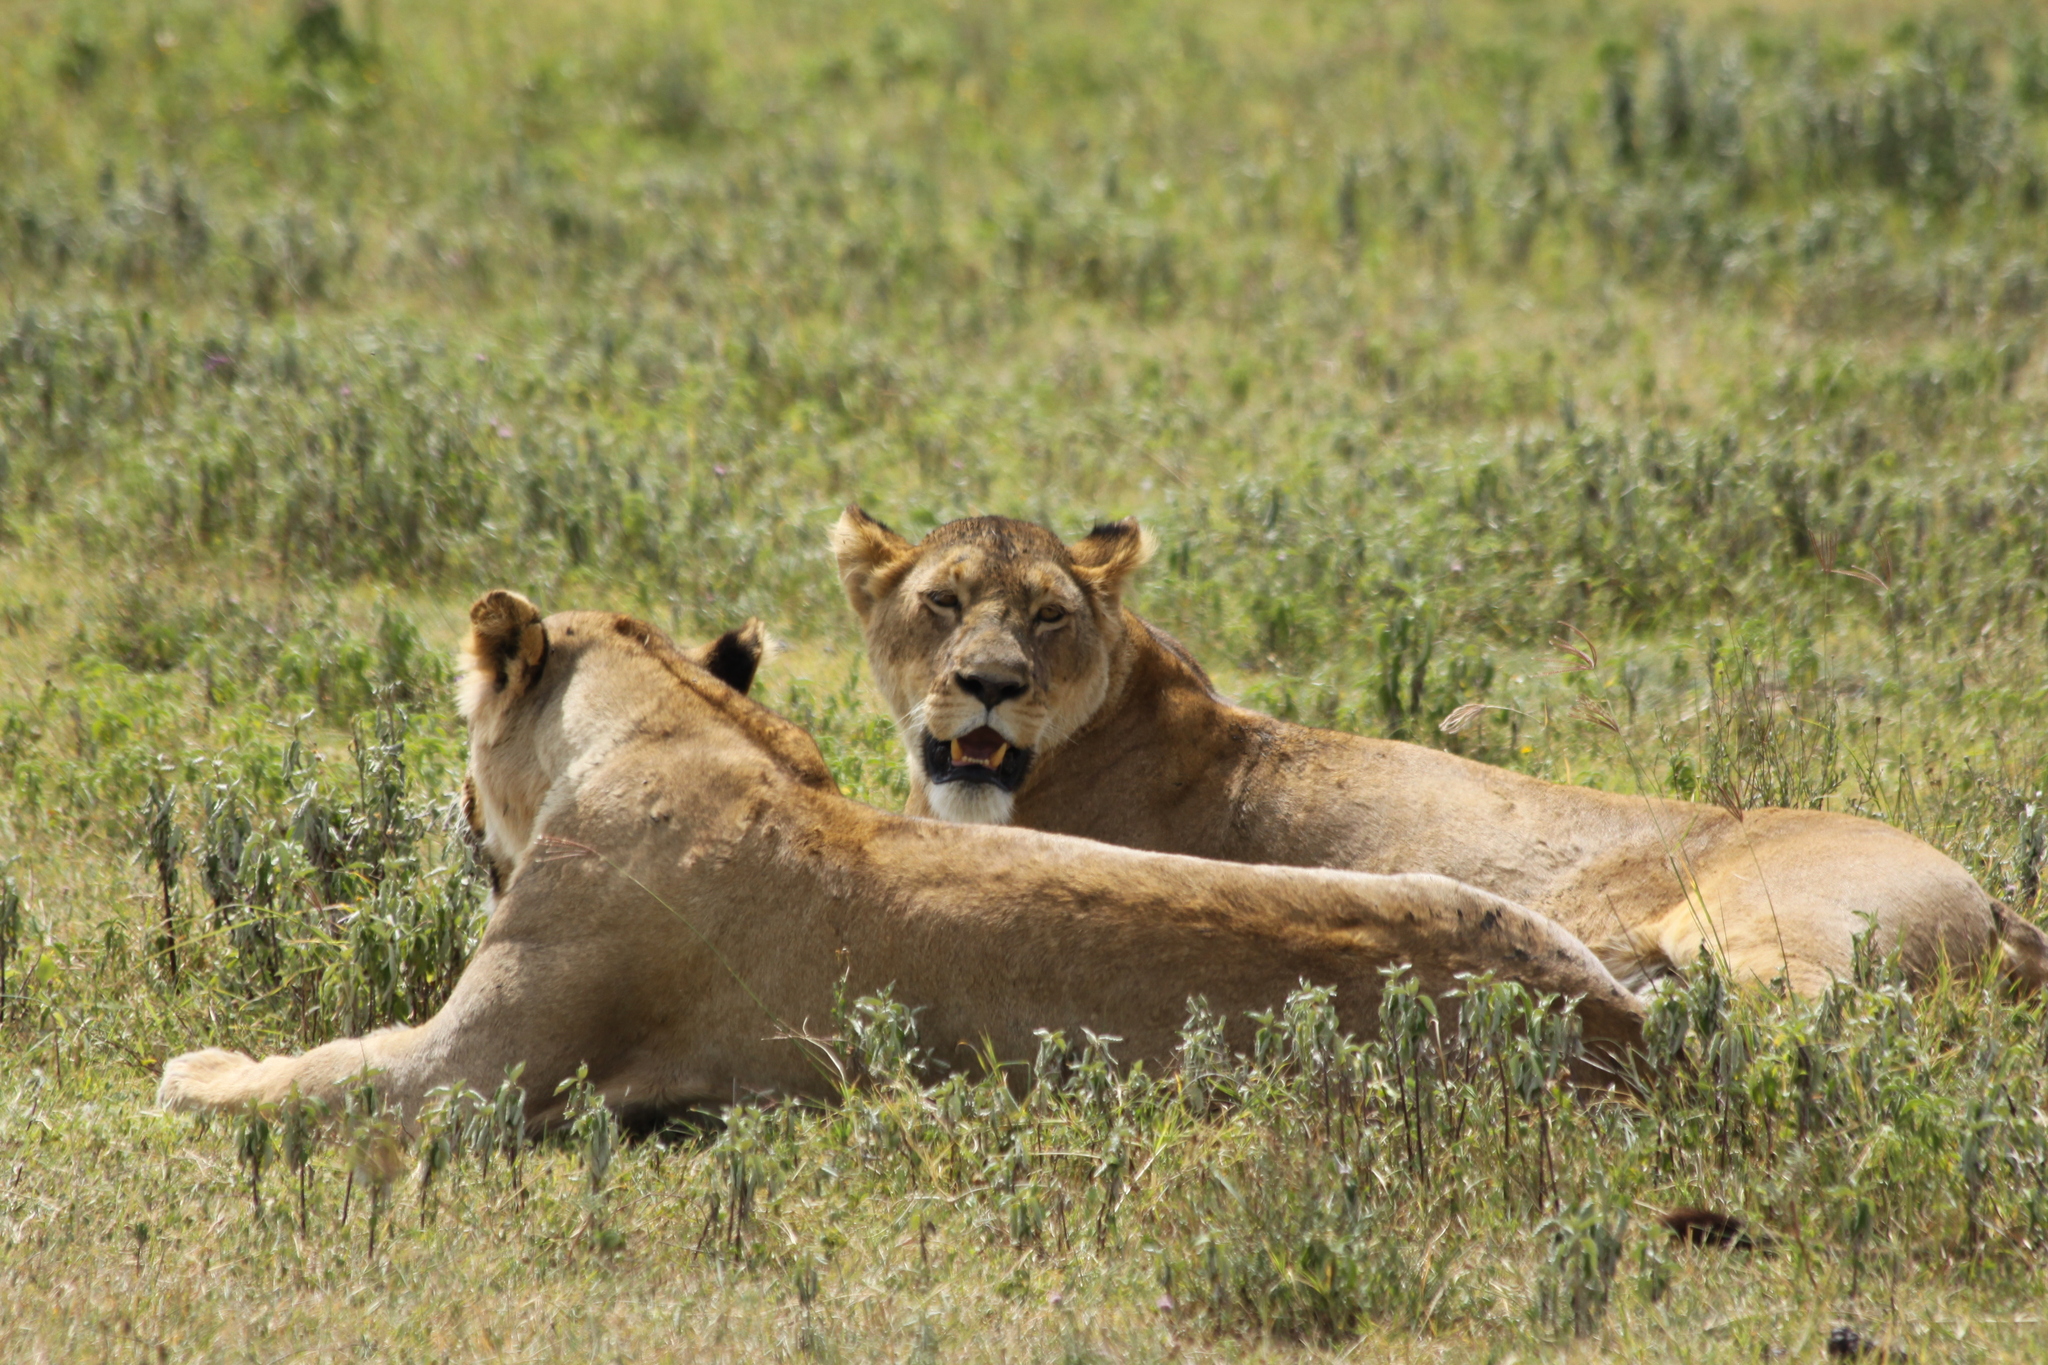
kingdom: Animalia
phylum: Chordata
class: Mammalia
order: Carnivora
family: Felidae
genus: Panthera
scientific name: Panthera leo
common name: Lion
